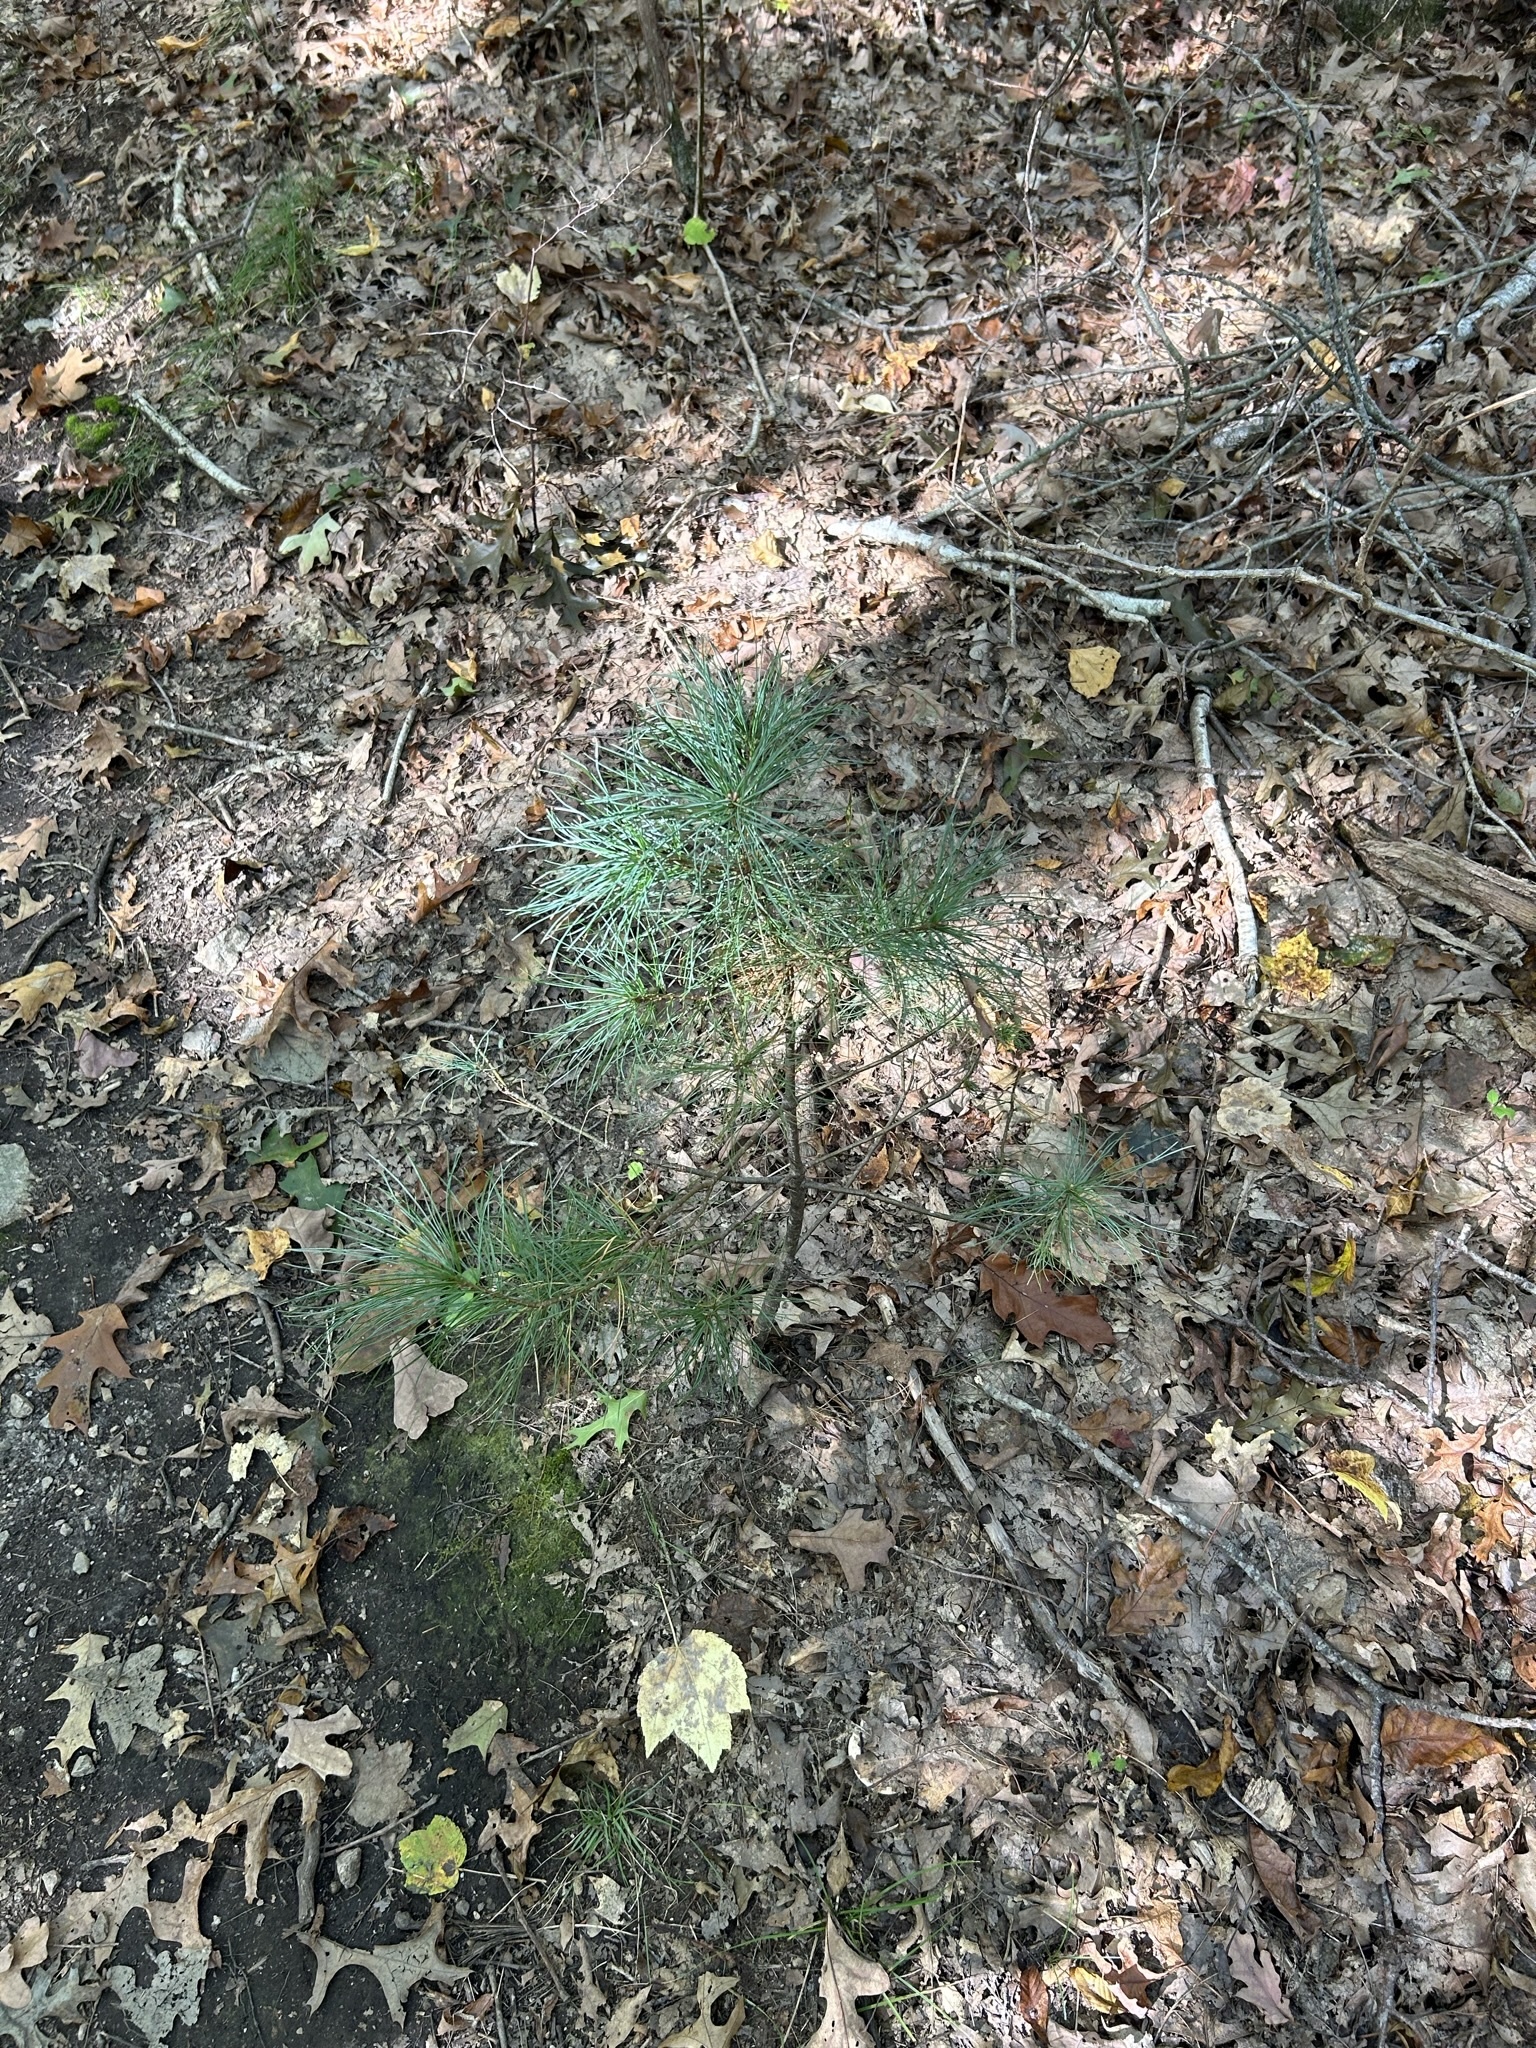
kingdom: Plantae
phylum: Tracheophyta
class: Pinopsida
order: Pinales
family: Pinaceae
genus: Pinus
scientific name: Pinus strobus
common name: Weymouth pine
